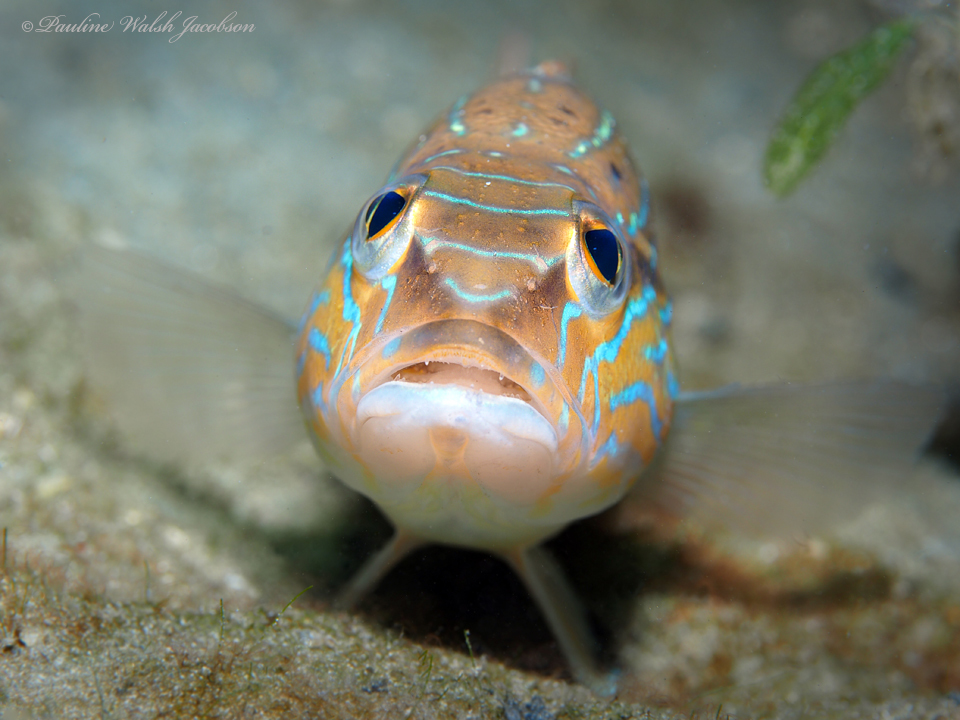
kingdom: Animalia
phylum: Chordata
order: Perciformes
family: Serranidae
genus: Diplectrum
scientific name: Diplectrum formosum
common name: Sand perch
